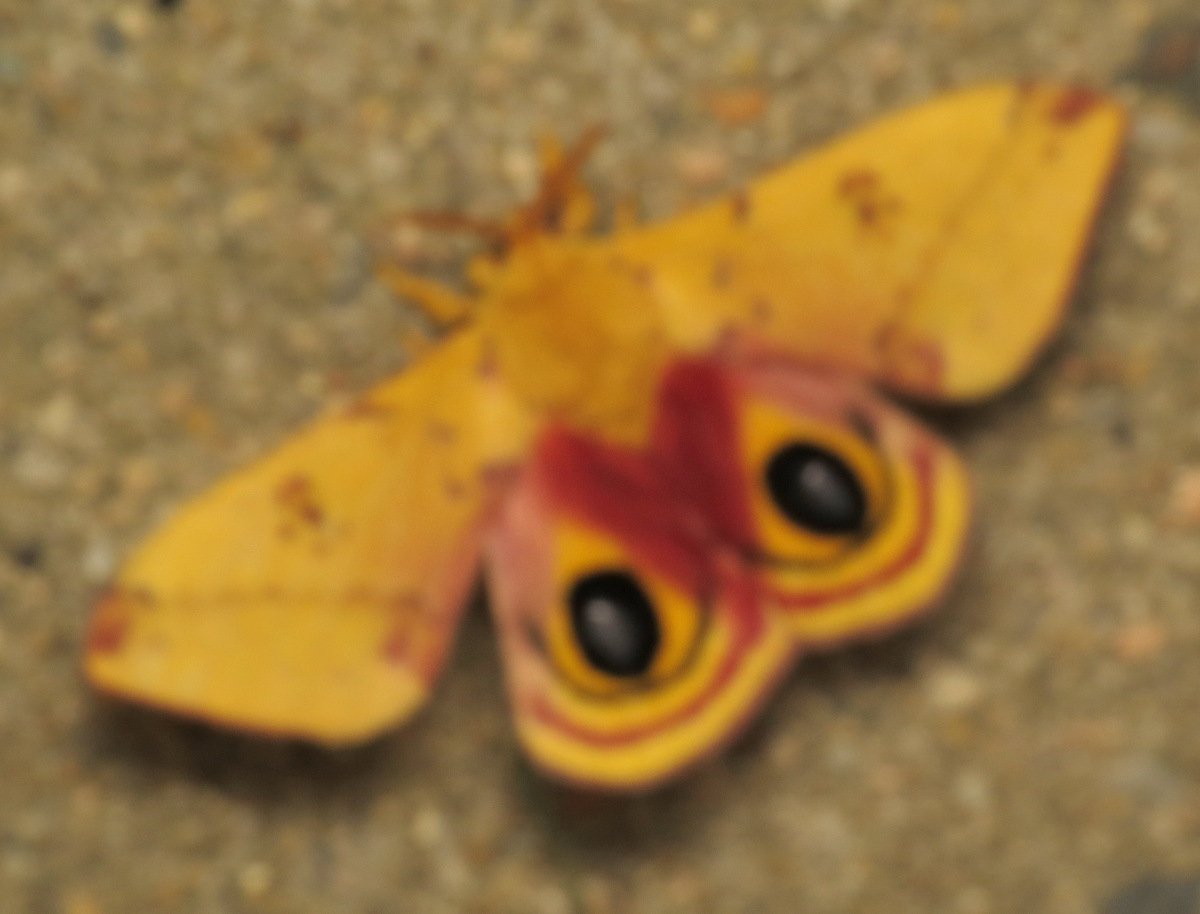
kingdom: Animalia
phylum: Arthropoda
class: Insecta
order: Lepidoptera
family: Saturniidae
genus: Automeris
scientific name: Automeris io
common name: Io moth
